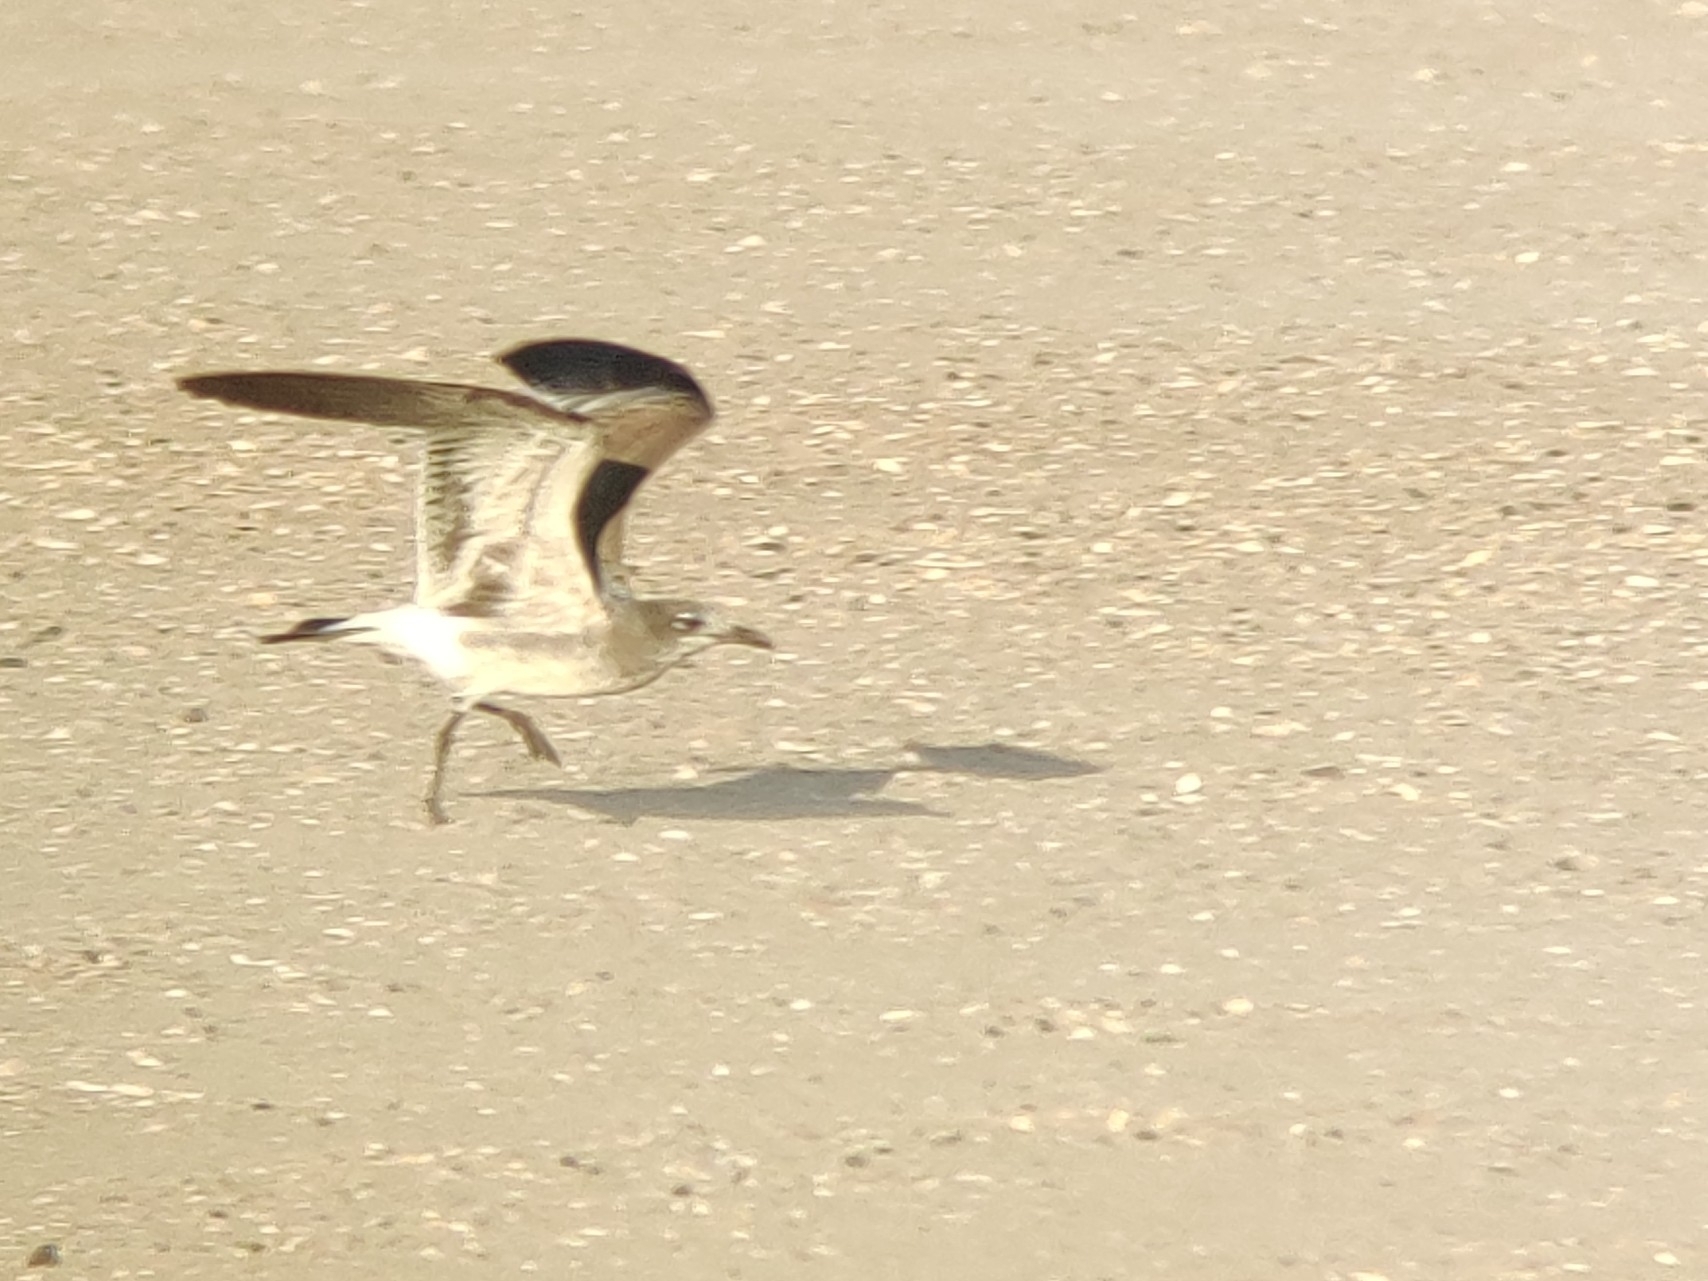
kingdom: Animalia
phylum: Chordata
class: Aves
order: Charadriiformes
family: Laridae
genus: Leucophaeus
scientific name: Leucophaeus atricilla
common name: Laughing gull
